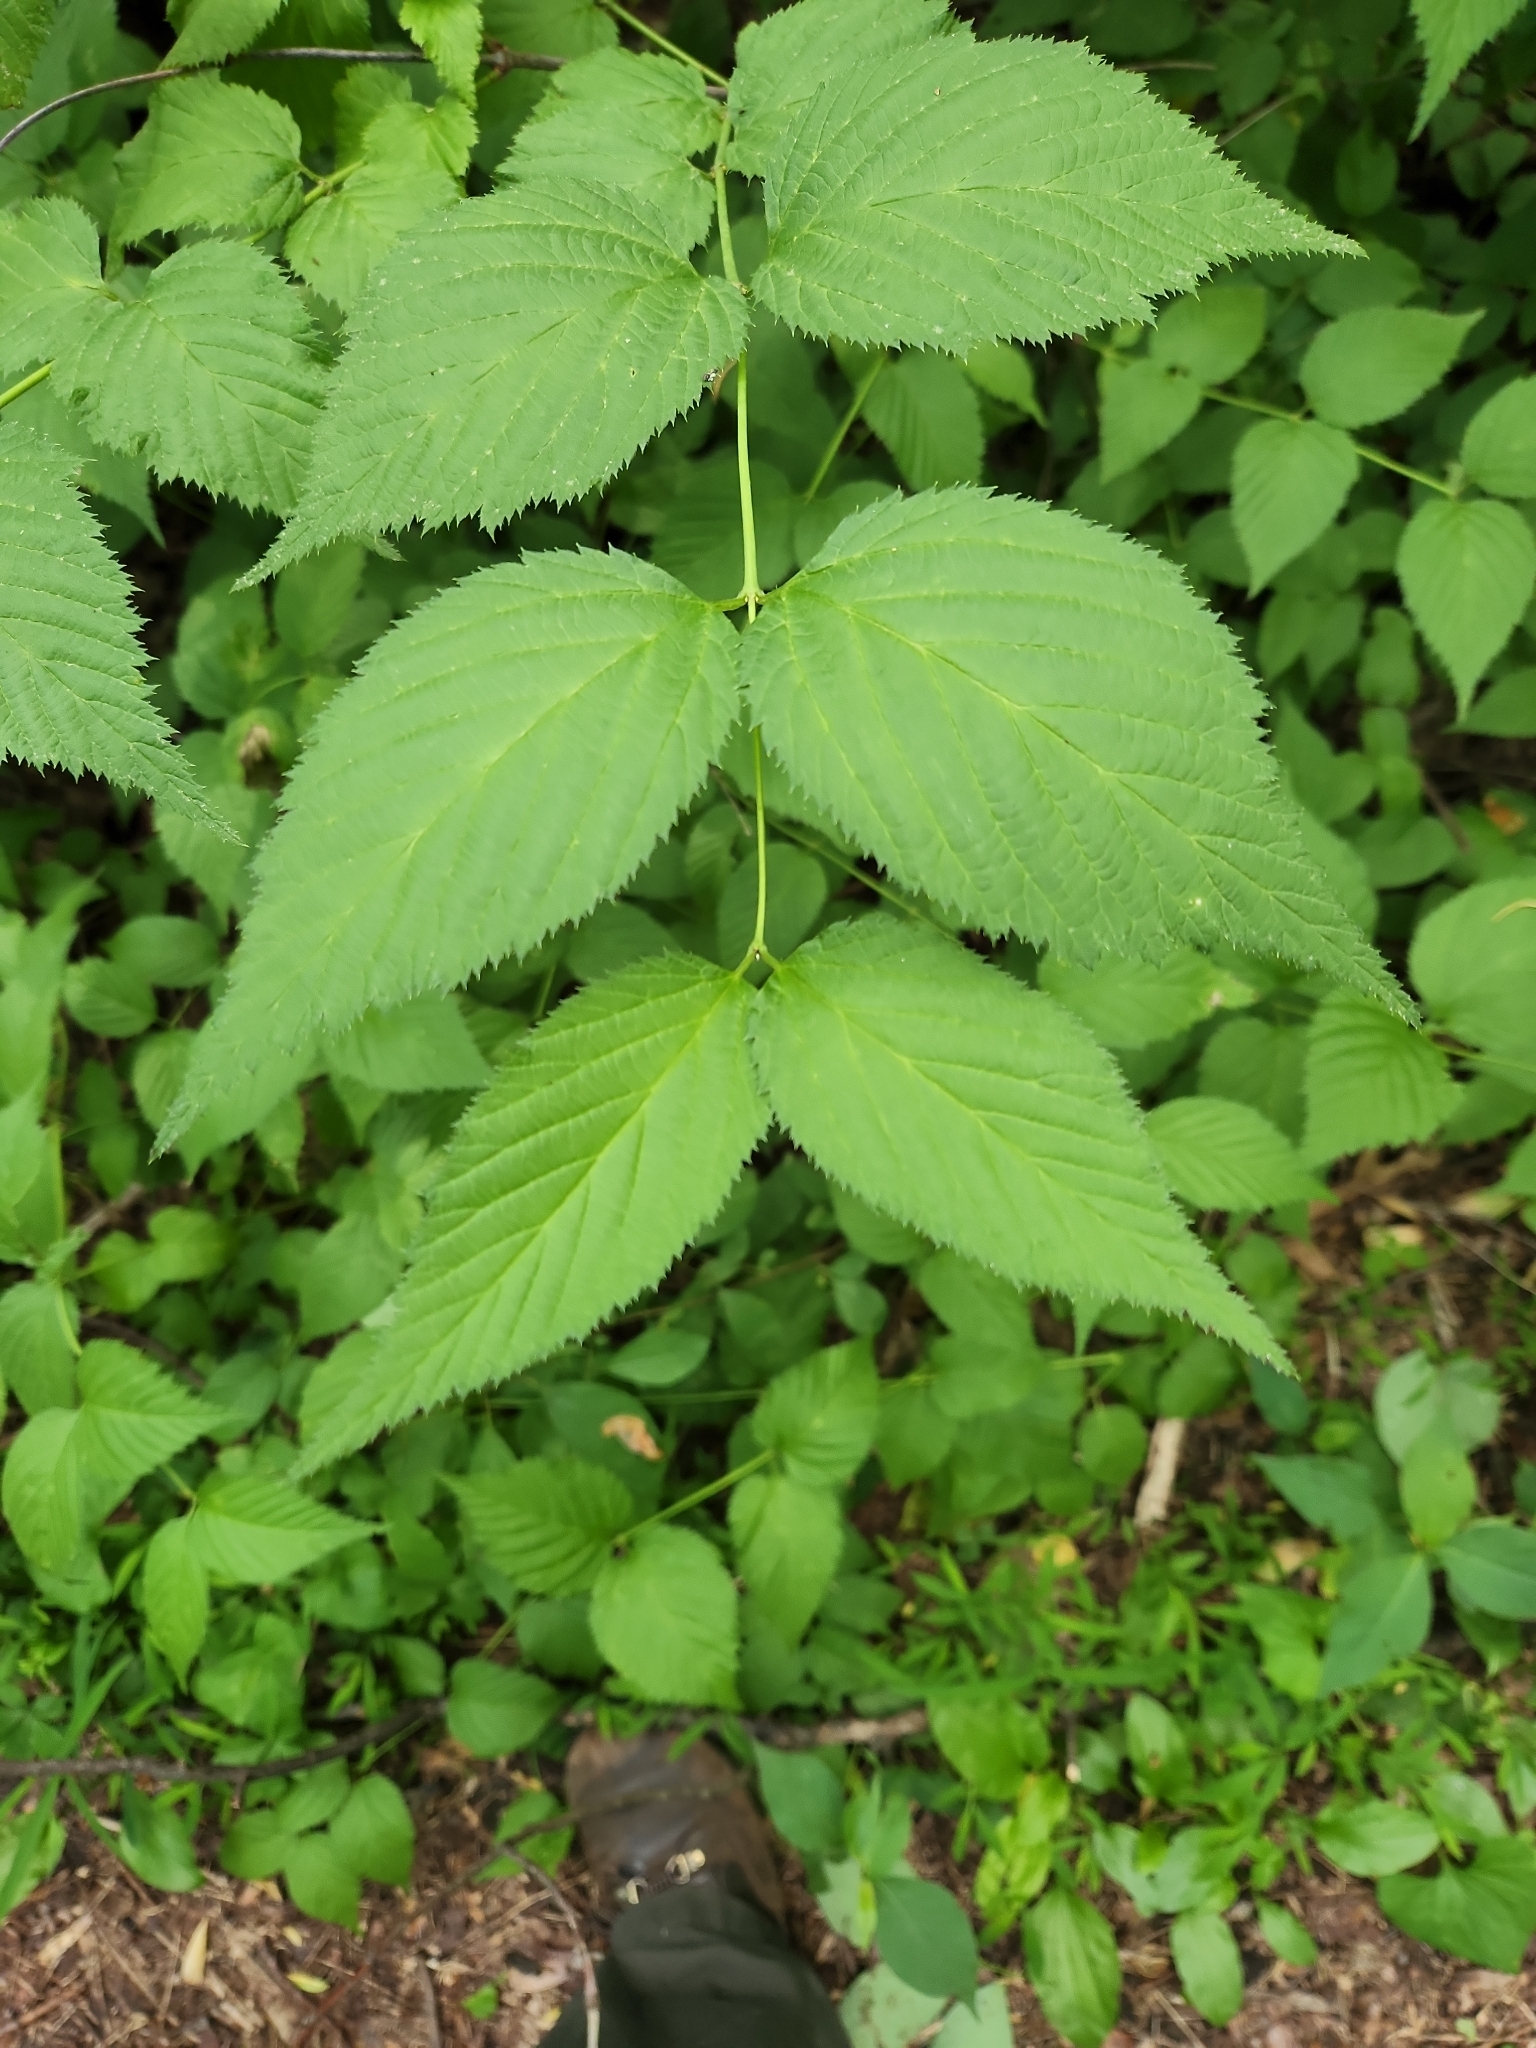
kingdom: Plantae
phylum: Tracheophyta
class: Magnoliopsida
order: Rosales
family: Rosaceae
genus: Rhodotypos
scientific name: Rhodotypos scandens
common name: Jetbead
